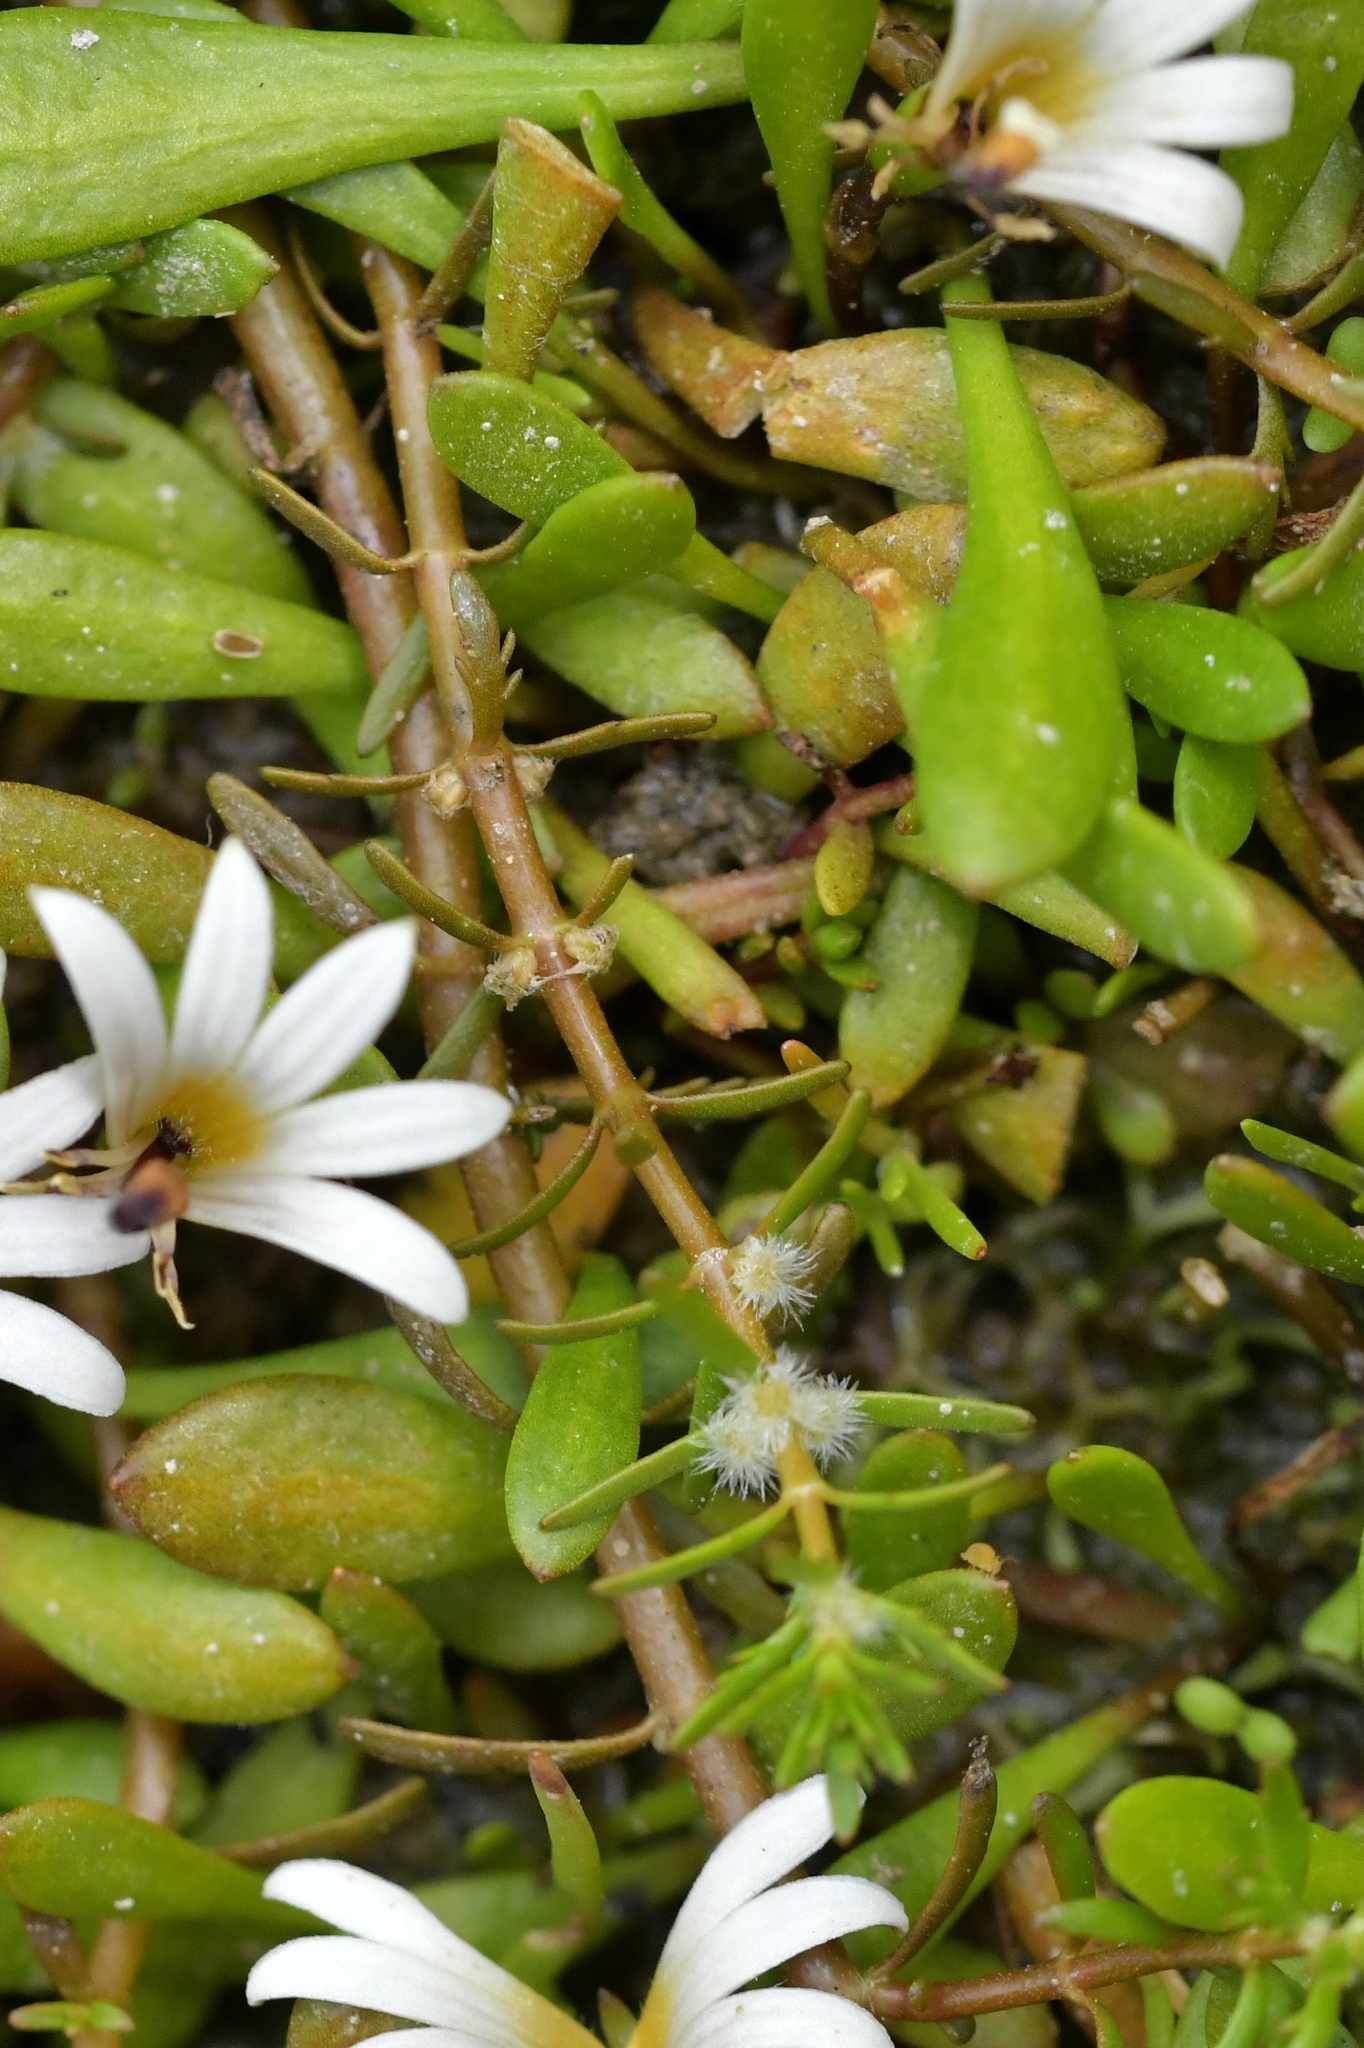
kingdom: Plantae
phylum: Tracheophyta
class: Magnoliopsida
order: Saxifragales
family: Haloragaceae
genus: Myriophyllum
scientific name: Myriophyllum propinquum
